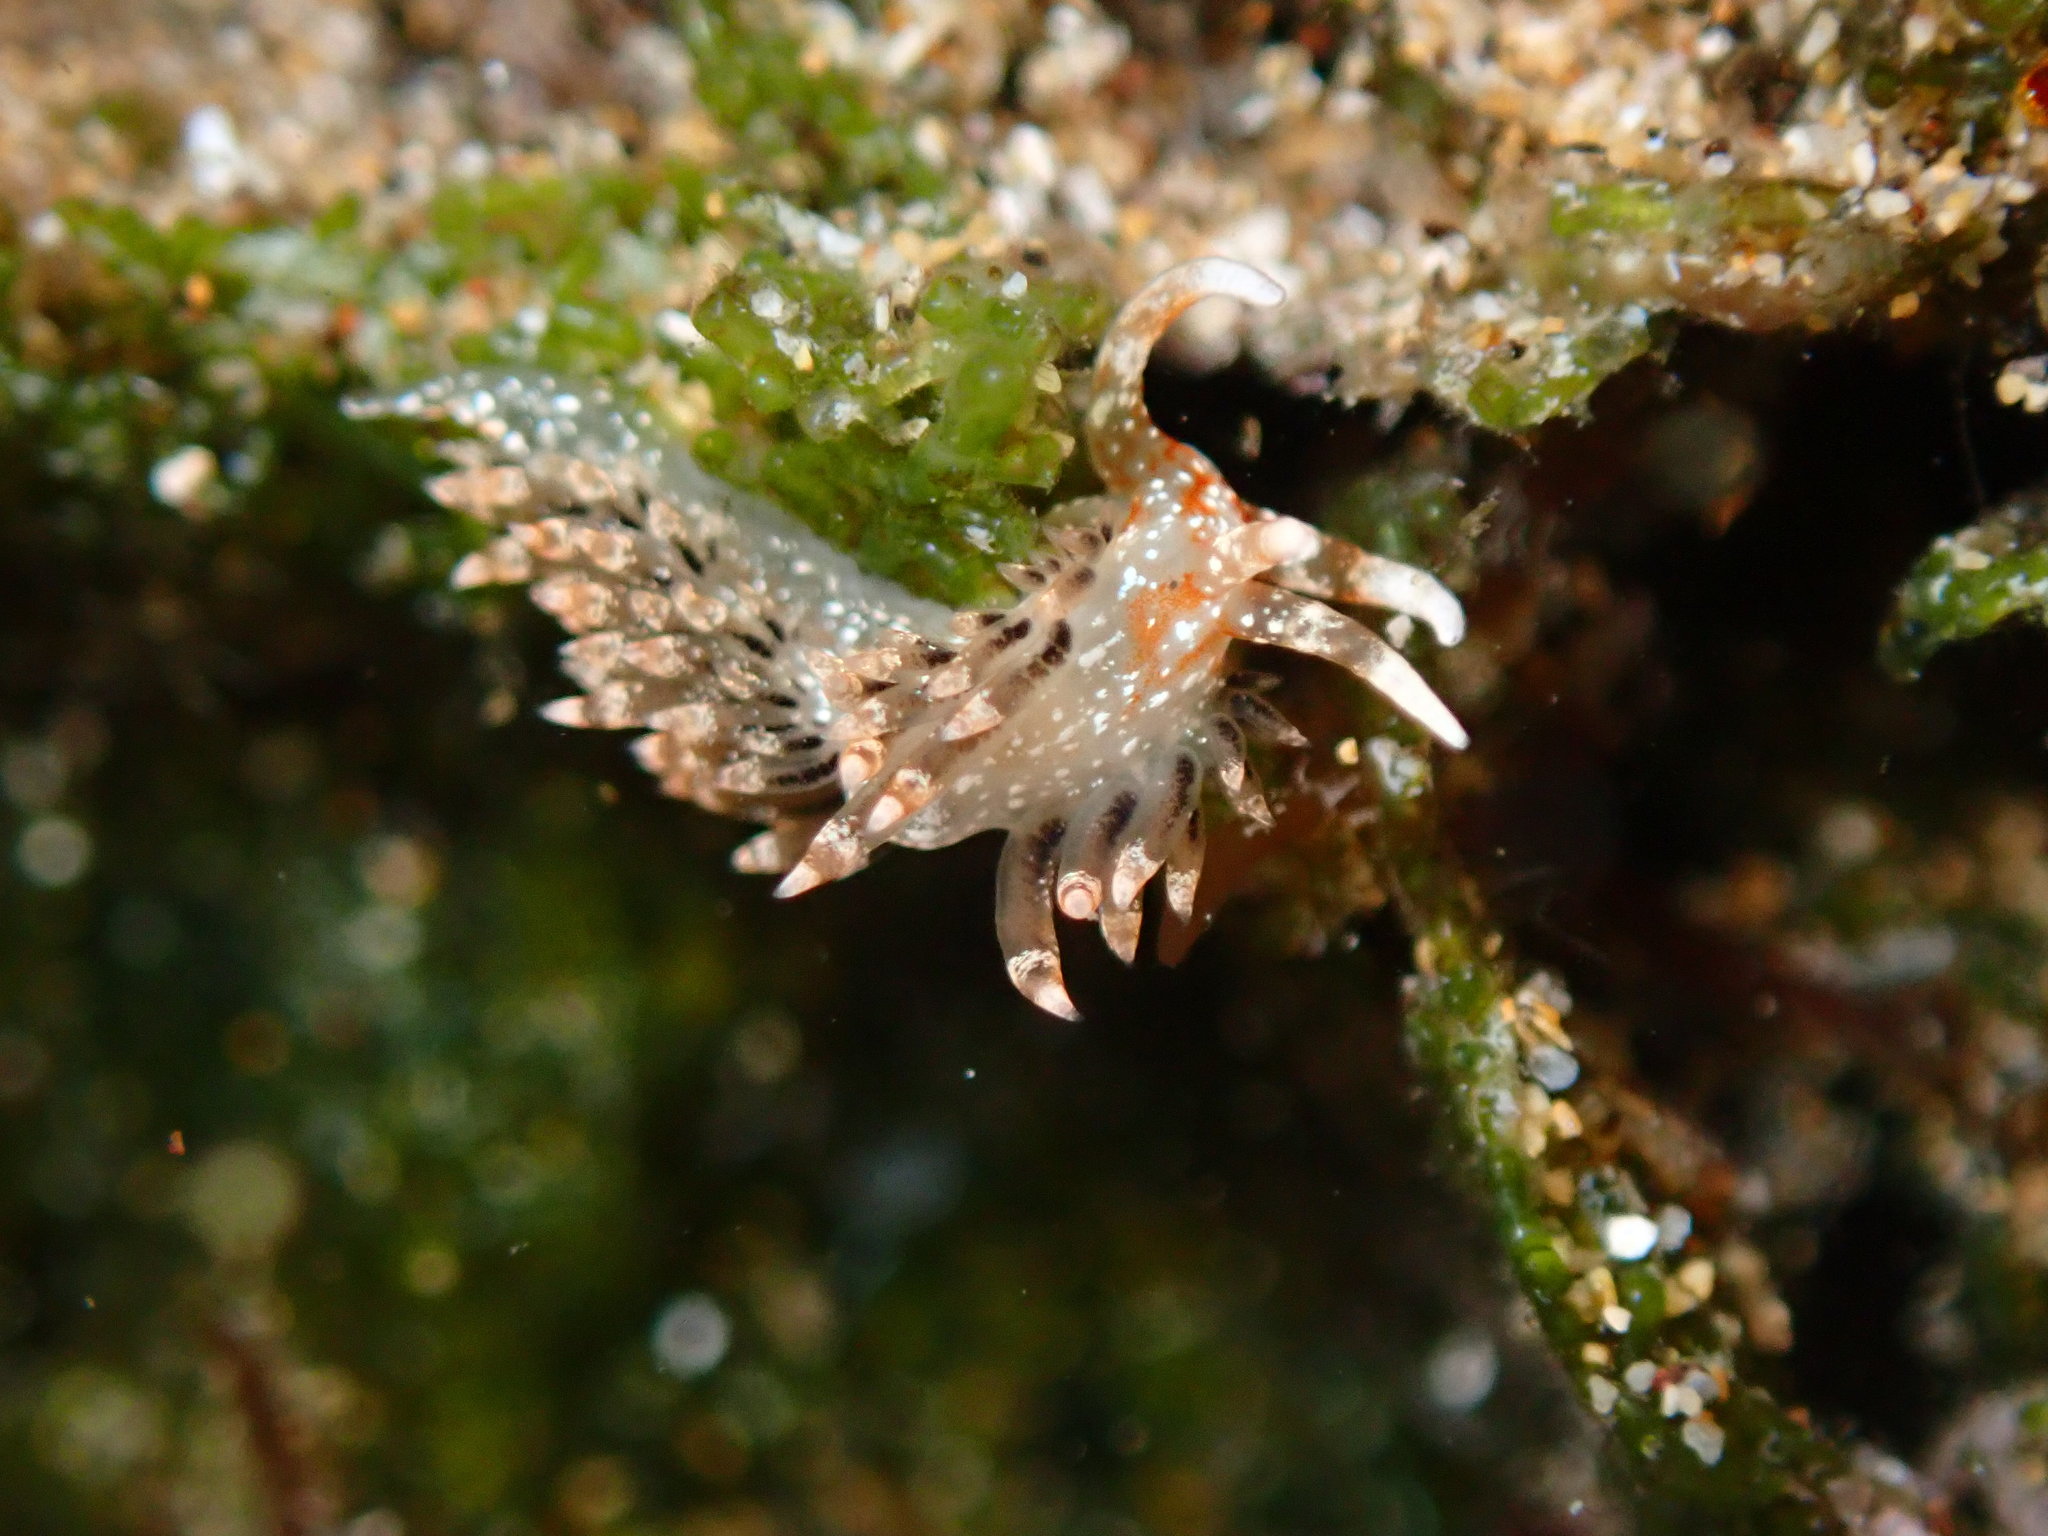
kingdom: Animalia
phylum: Mollusca
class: Gastropoda
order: Nudibranchia
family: Facelinidae
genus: Phidiana
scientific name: Phidiana semidecora
